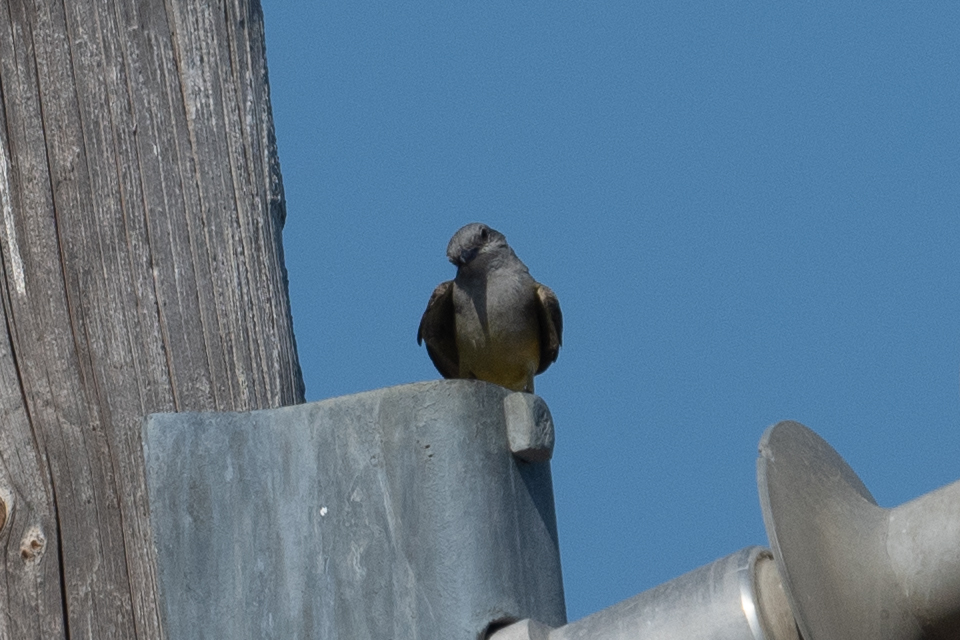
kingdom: Animalia
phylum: Chordata
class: Aves
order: Passeriformes
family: Tyrannidae
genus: Tyrannus
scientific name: Tyrannus verticalis
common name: Western kingbird
